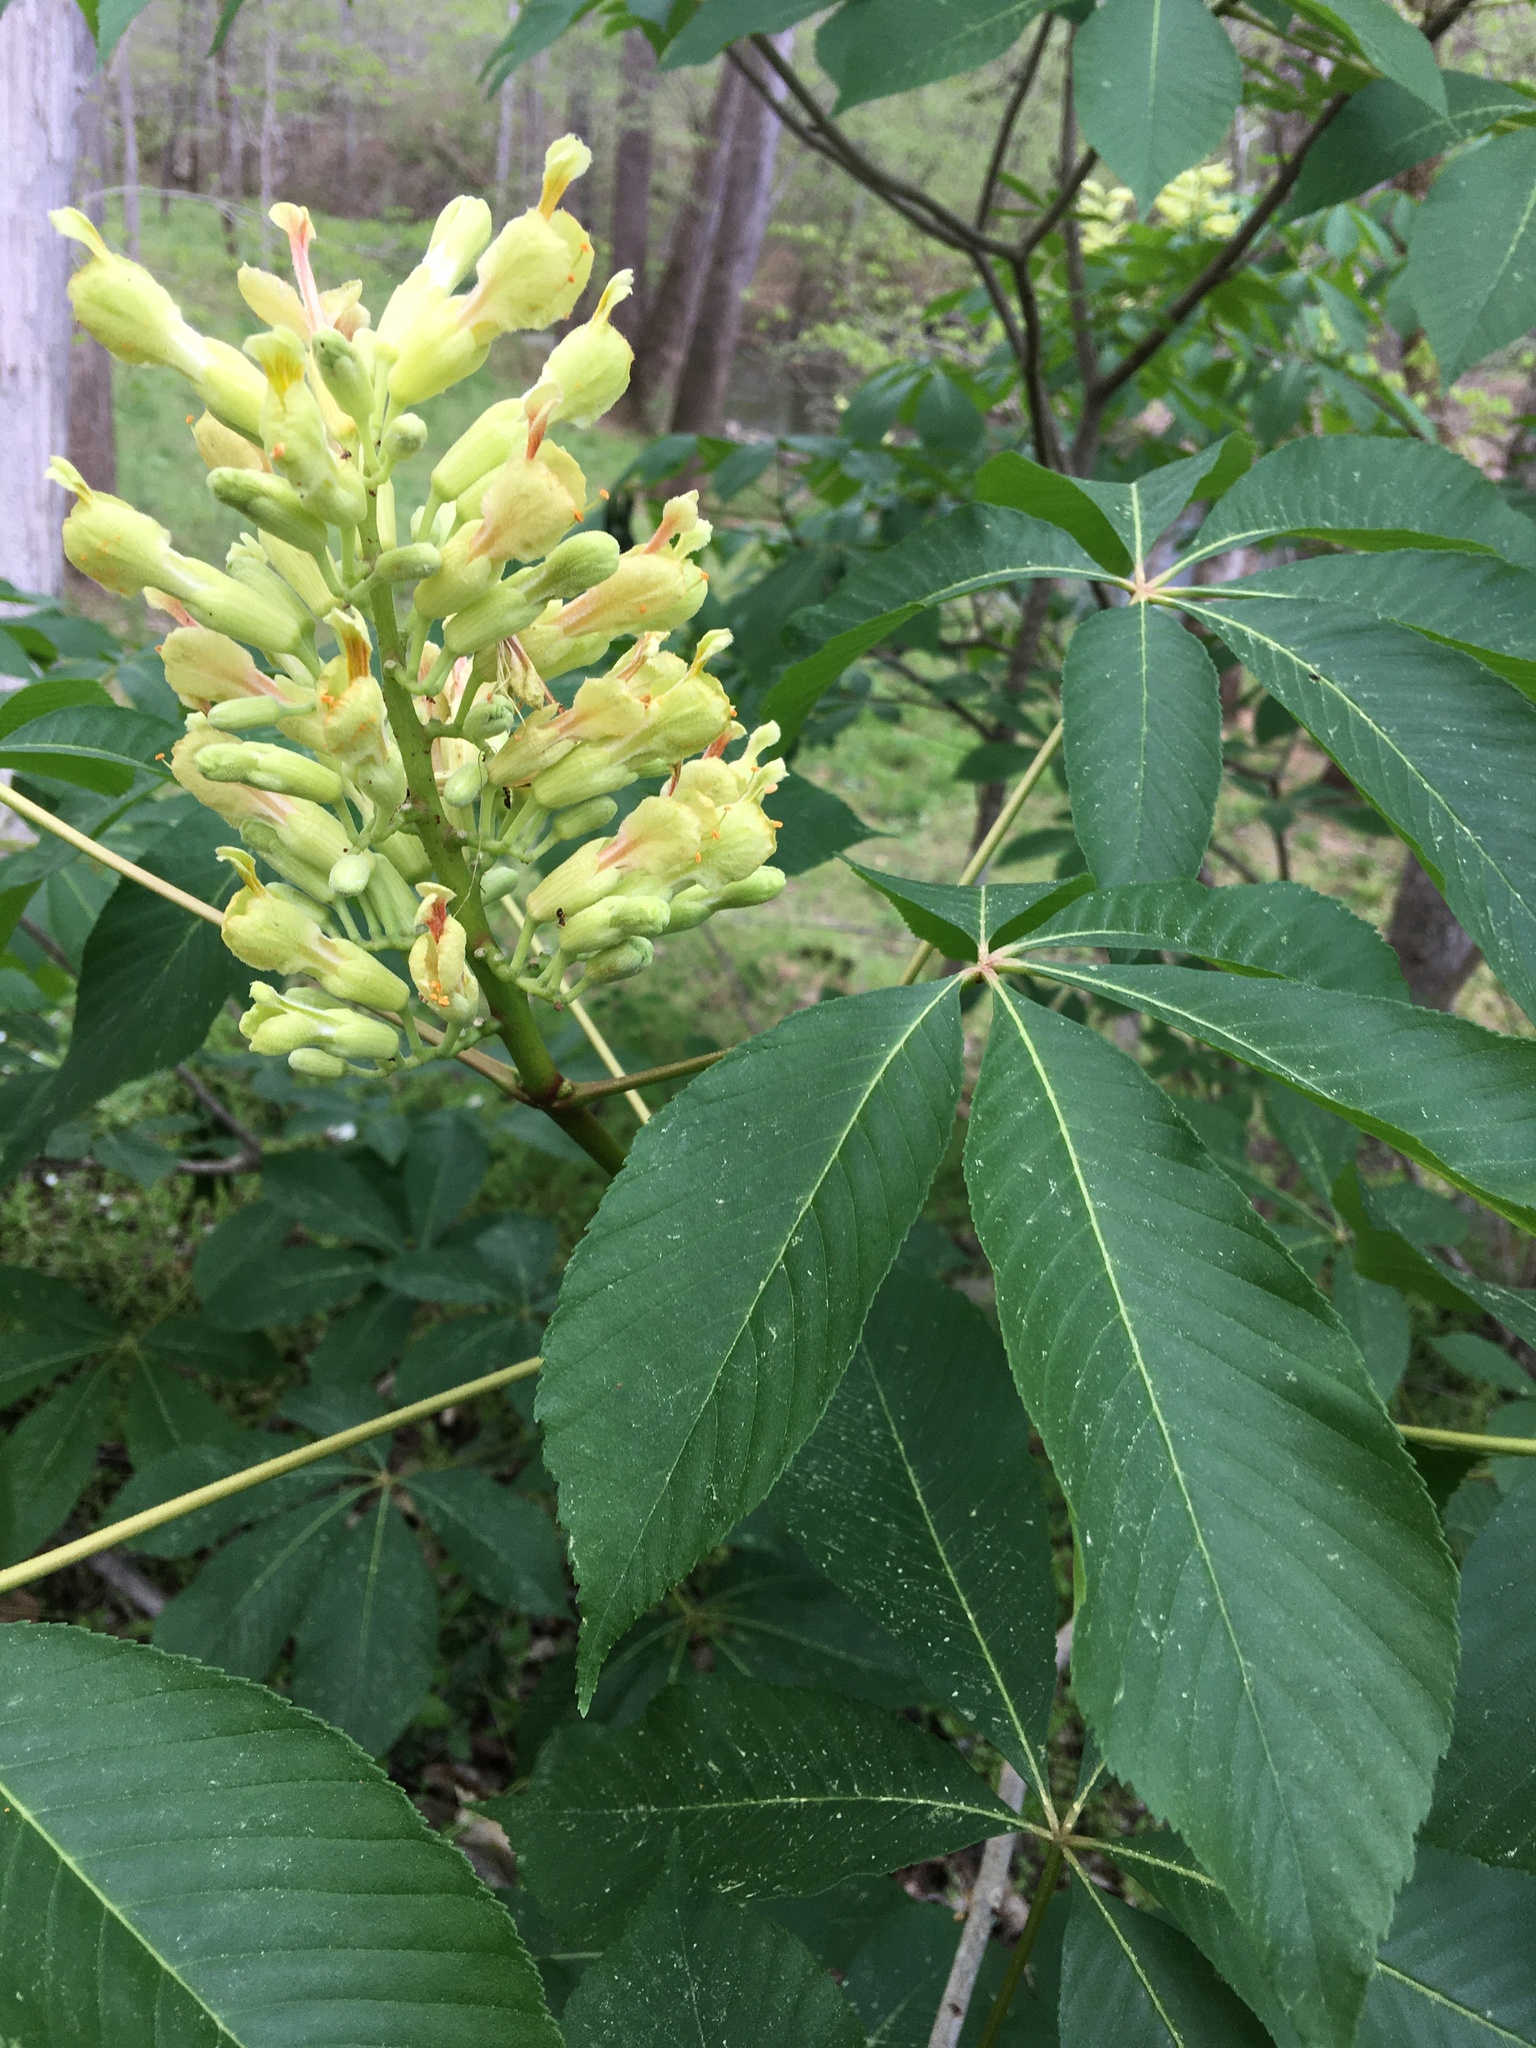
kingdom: Plantae
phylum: Tracheophyta
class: Magnoliopsida
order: Sapindales
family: Sapindaceae
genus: Aesculus
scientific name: Aesculus sylvatica
